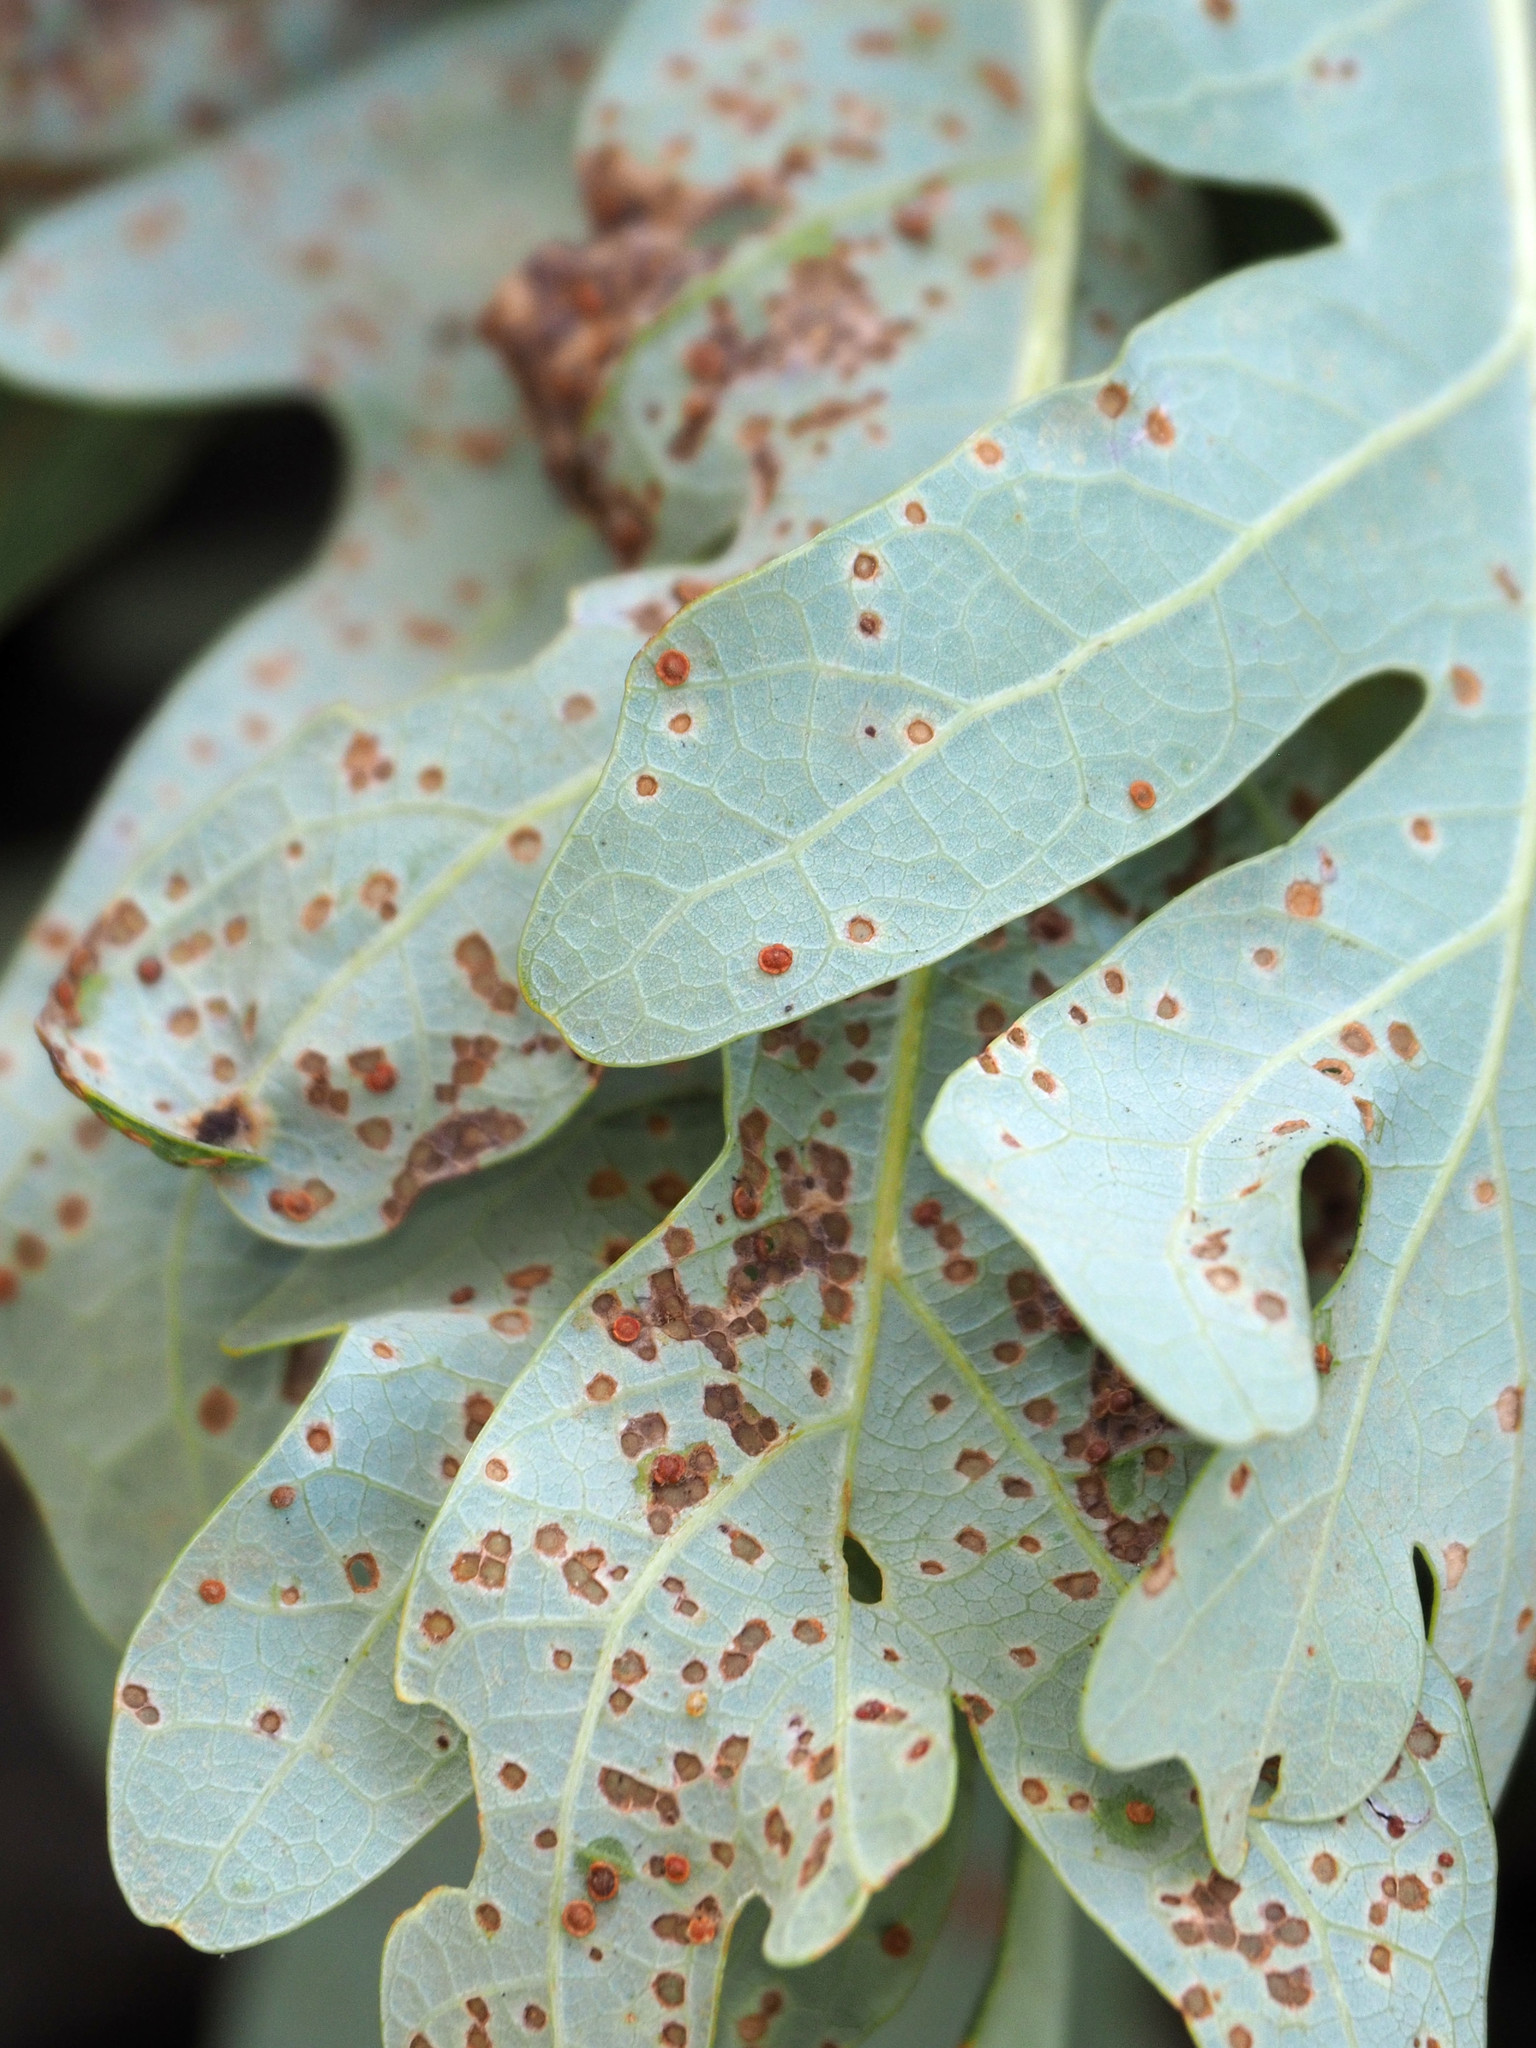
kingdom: Animalia
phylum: Arthropoda
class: Insecta
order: Hymenoptera
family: Cynipidae
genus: Neuroterus
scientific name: Neuroterus
